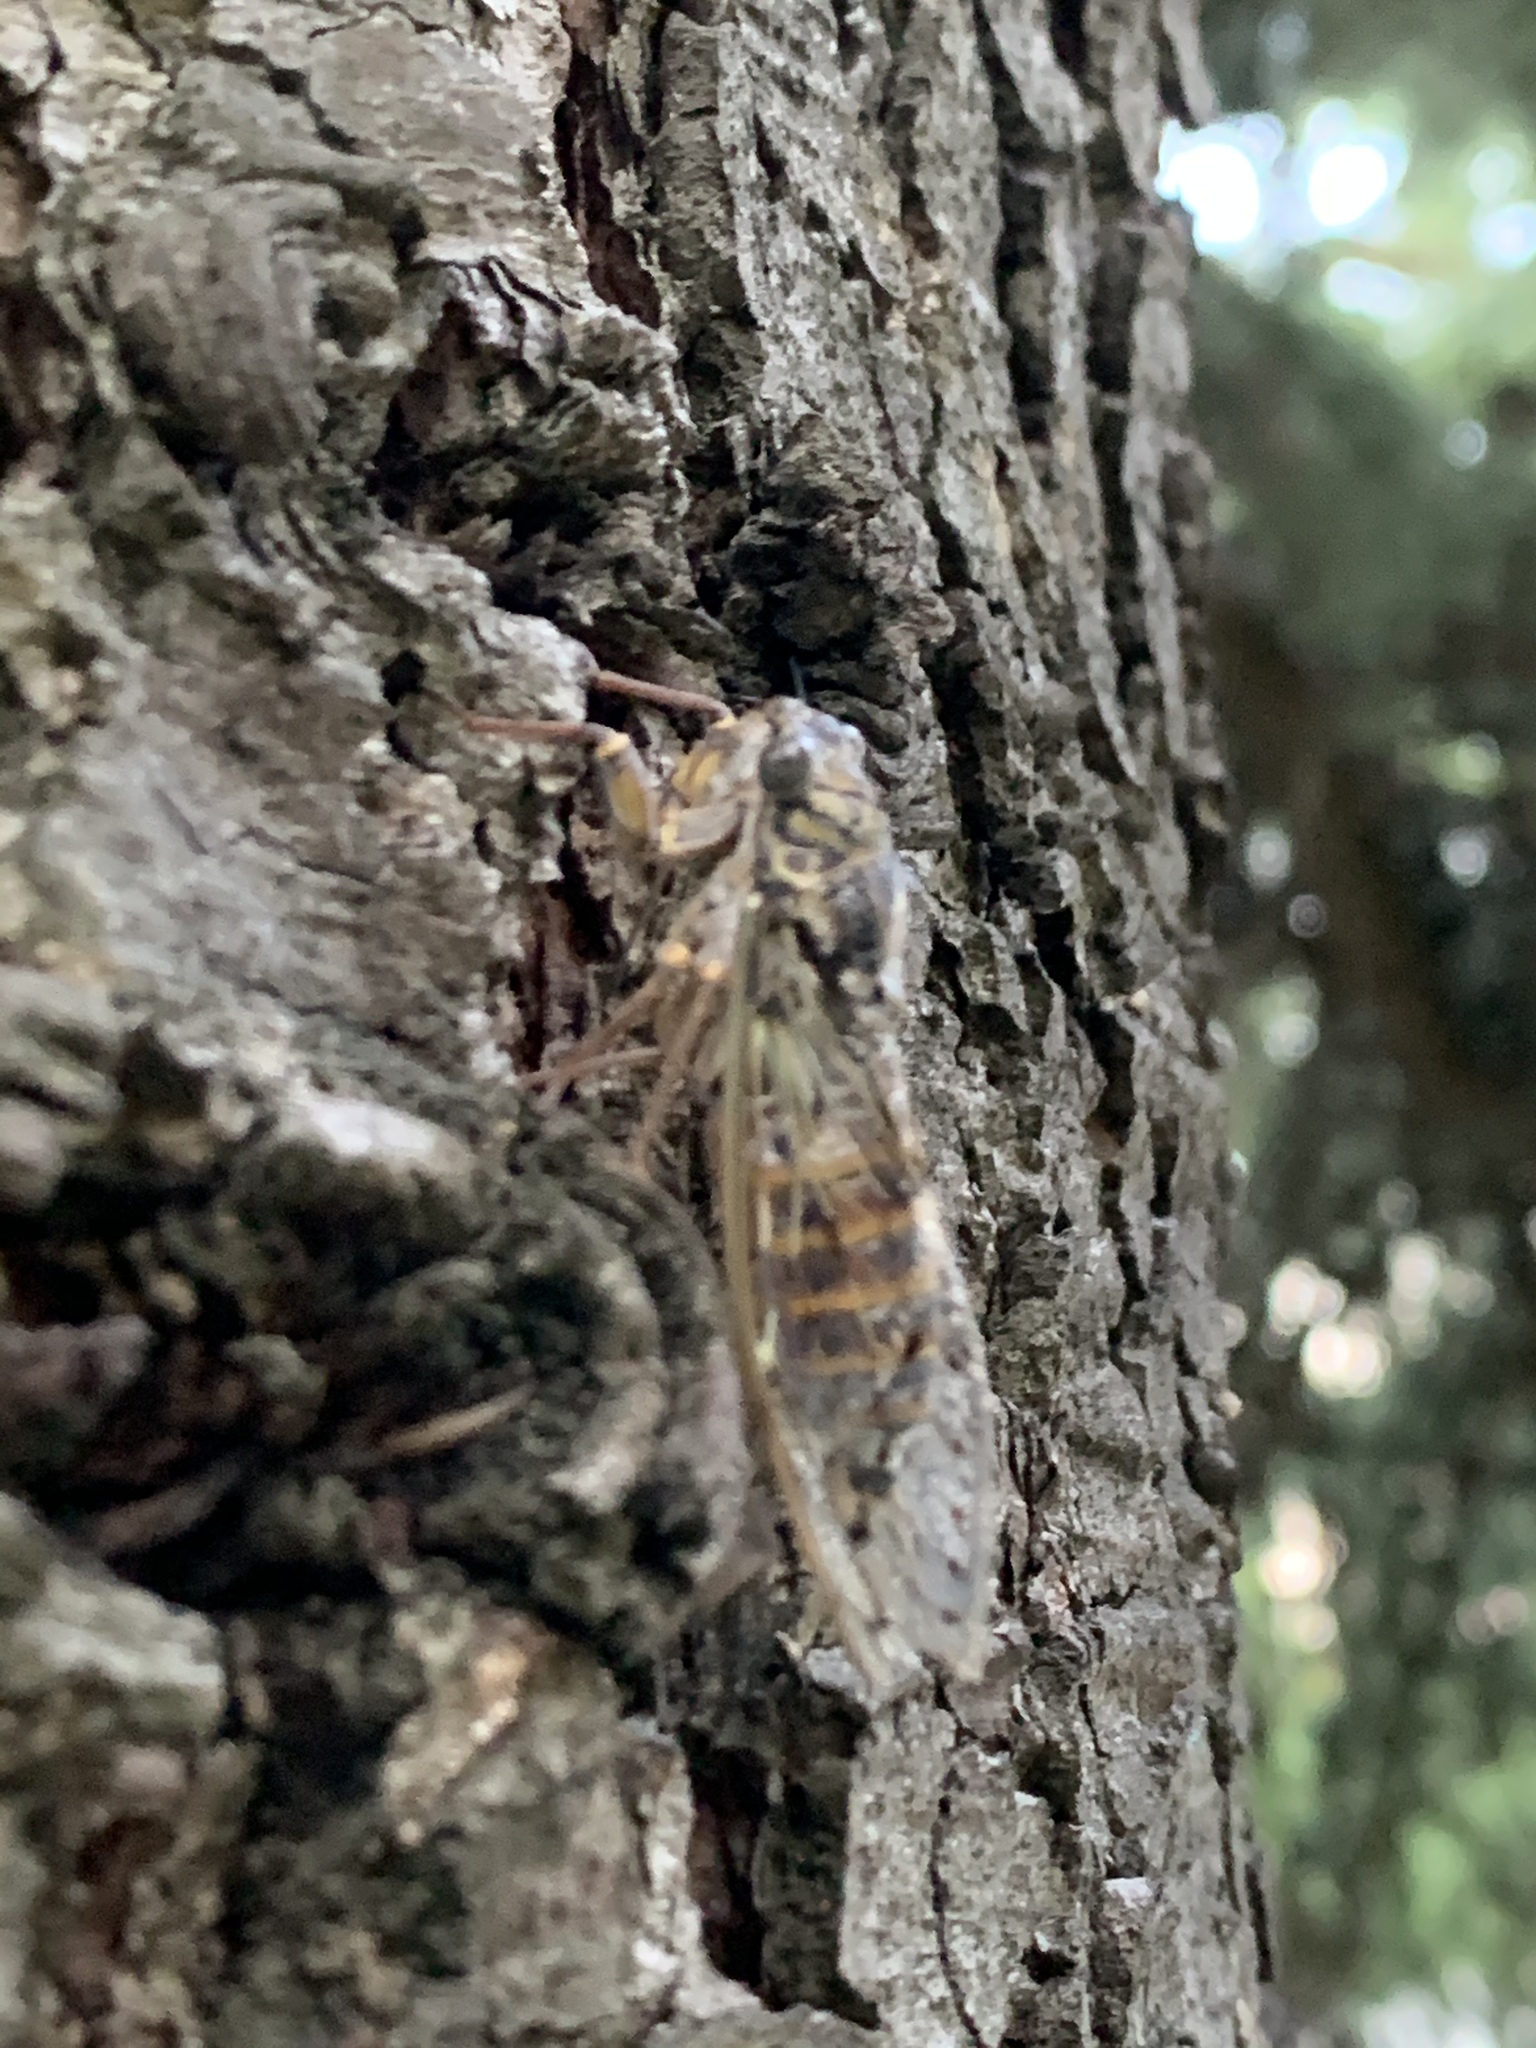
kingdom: Animalia
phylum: Arthropoda
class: Insecta
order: Hemiptera
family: Cicadidae
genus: Cicada
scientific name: Cicada orni
